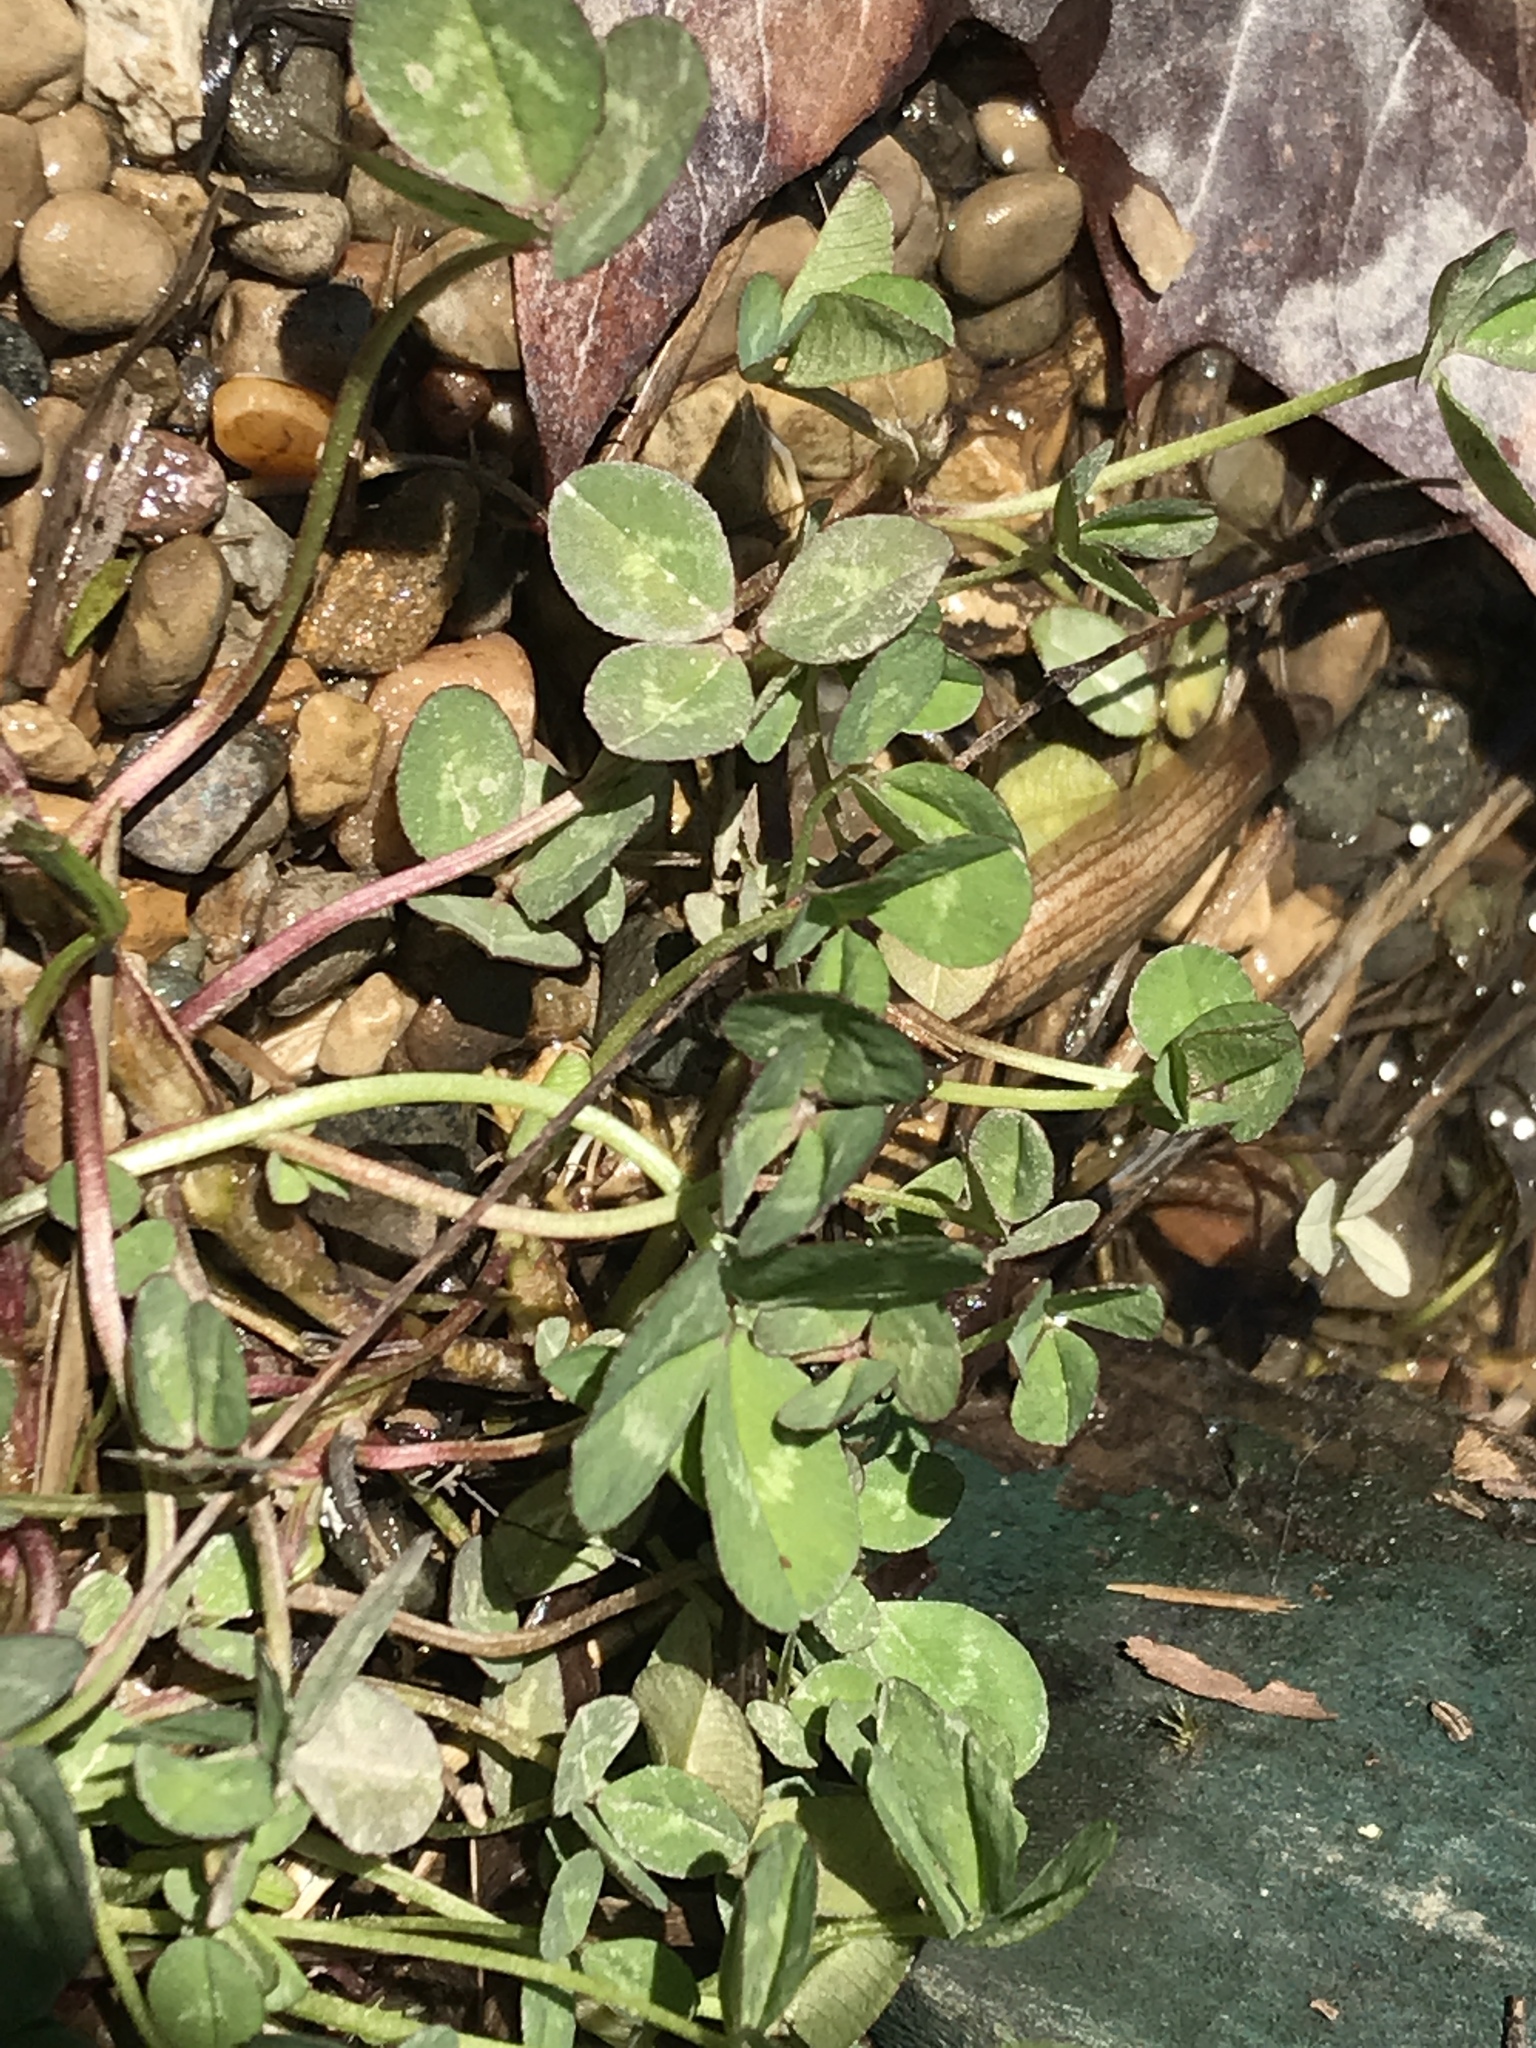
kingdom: Plantae
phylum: Tracheophyta
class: Magnoliopsida
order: Fabales
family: Fabaceae
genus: Trifolium
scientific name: Trifolium repens
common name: White clover
